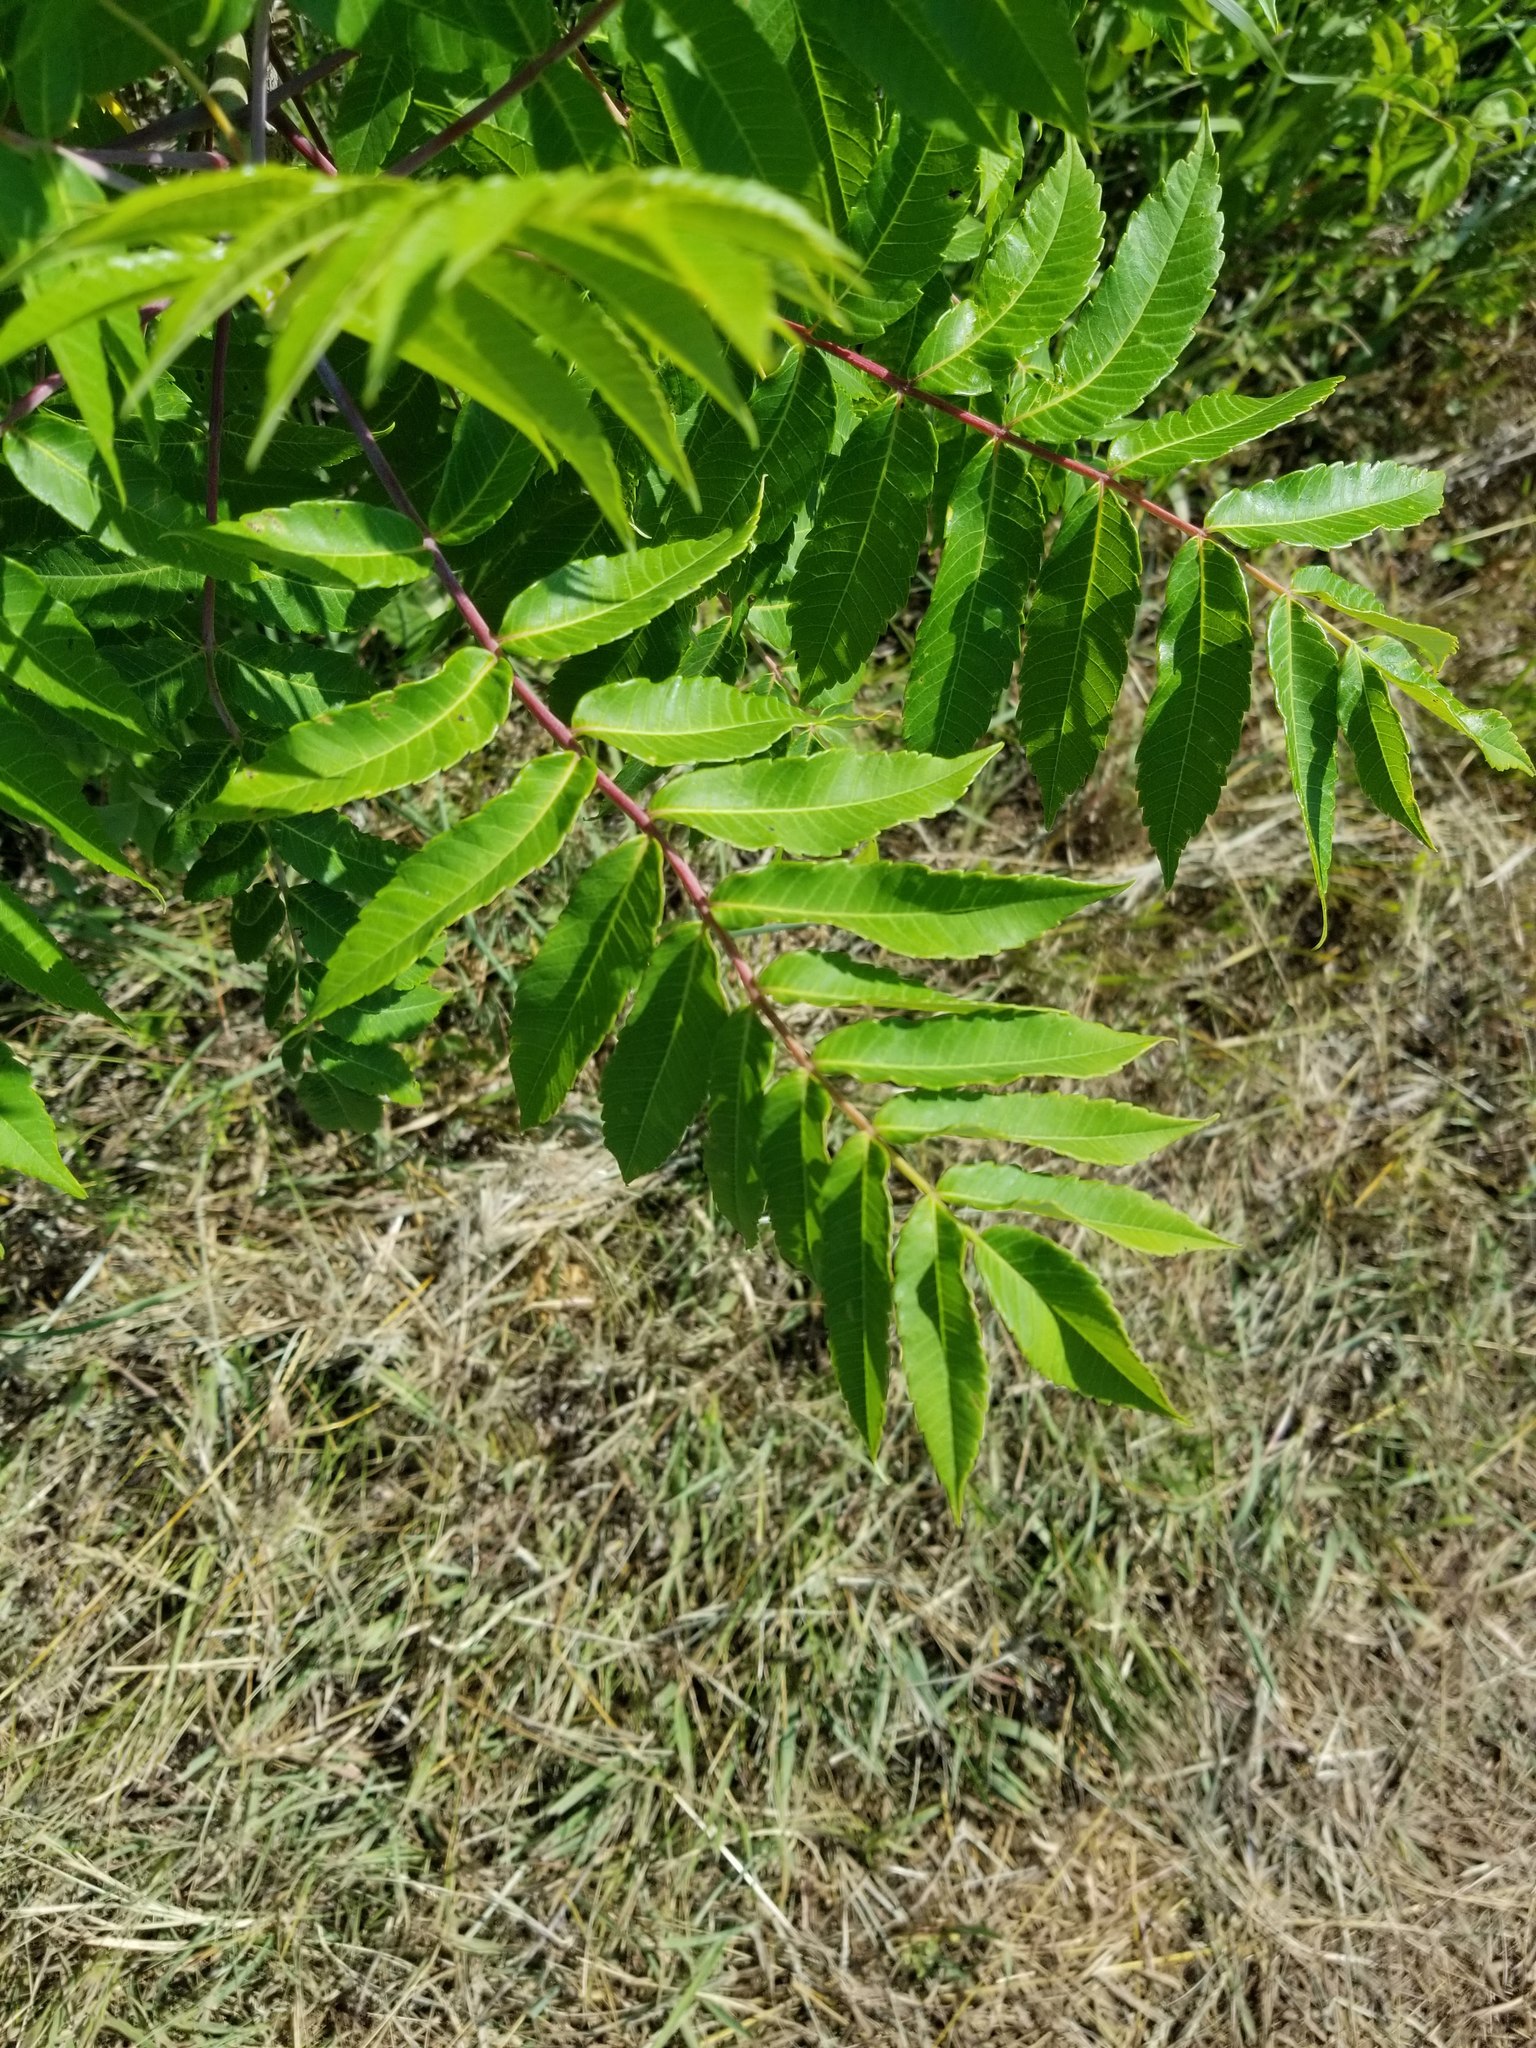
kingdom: Plantae
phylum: Tracheophyta
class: Magnoliopsida
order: Sapindales
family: Anacardiaceae
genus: Rhus
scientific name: Rhus glabra
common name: Scarlet sumac
